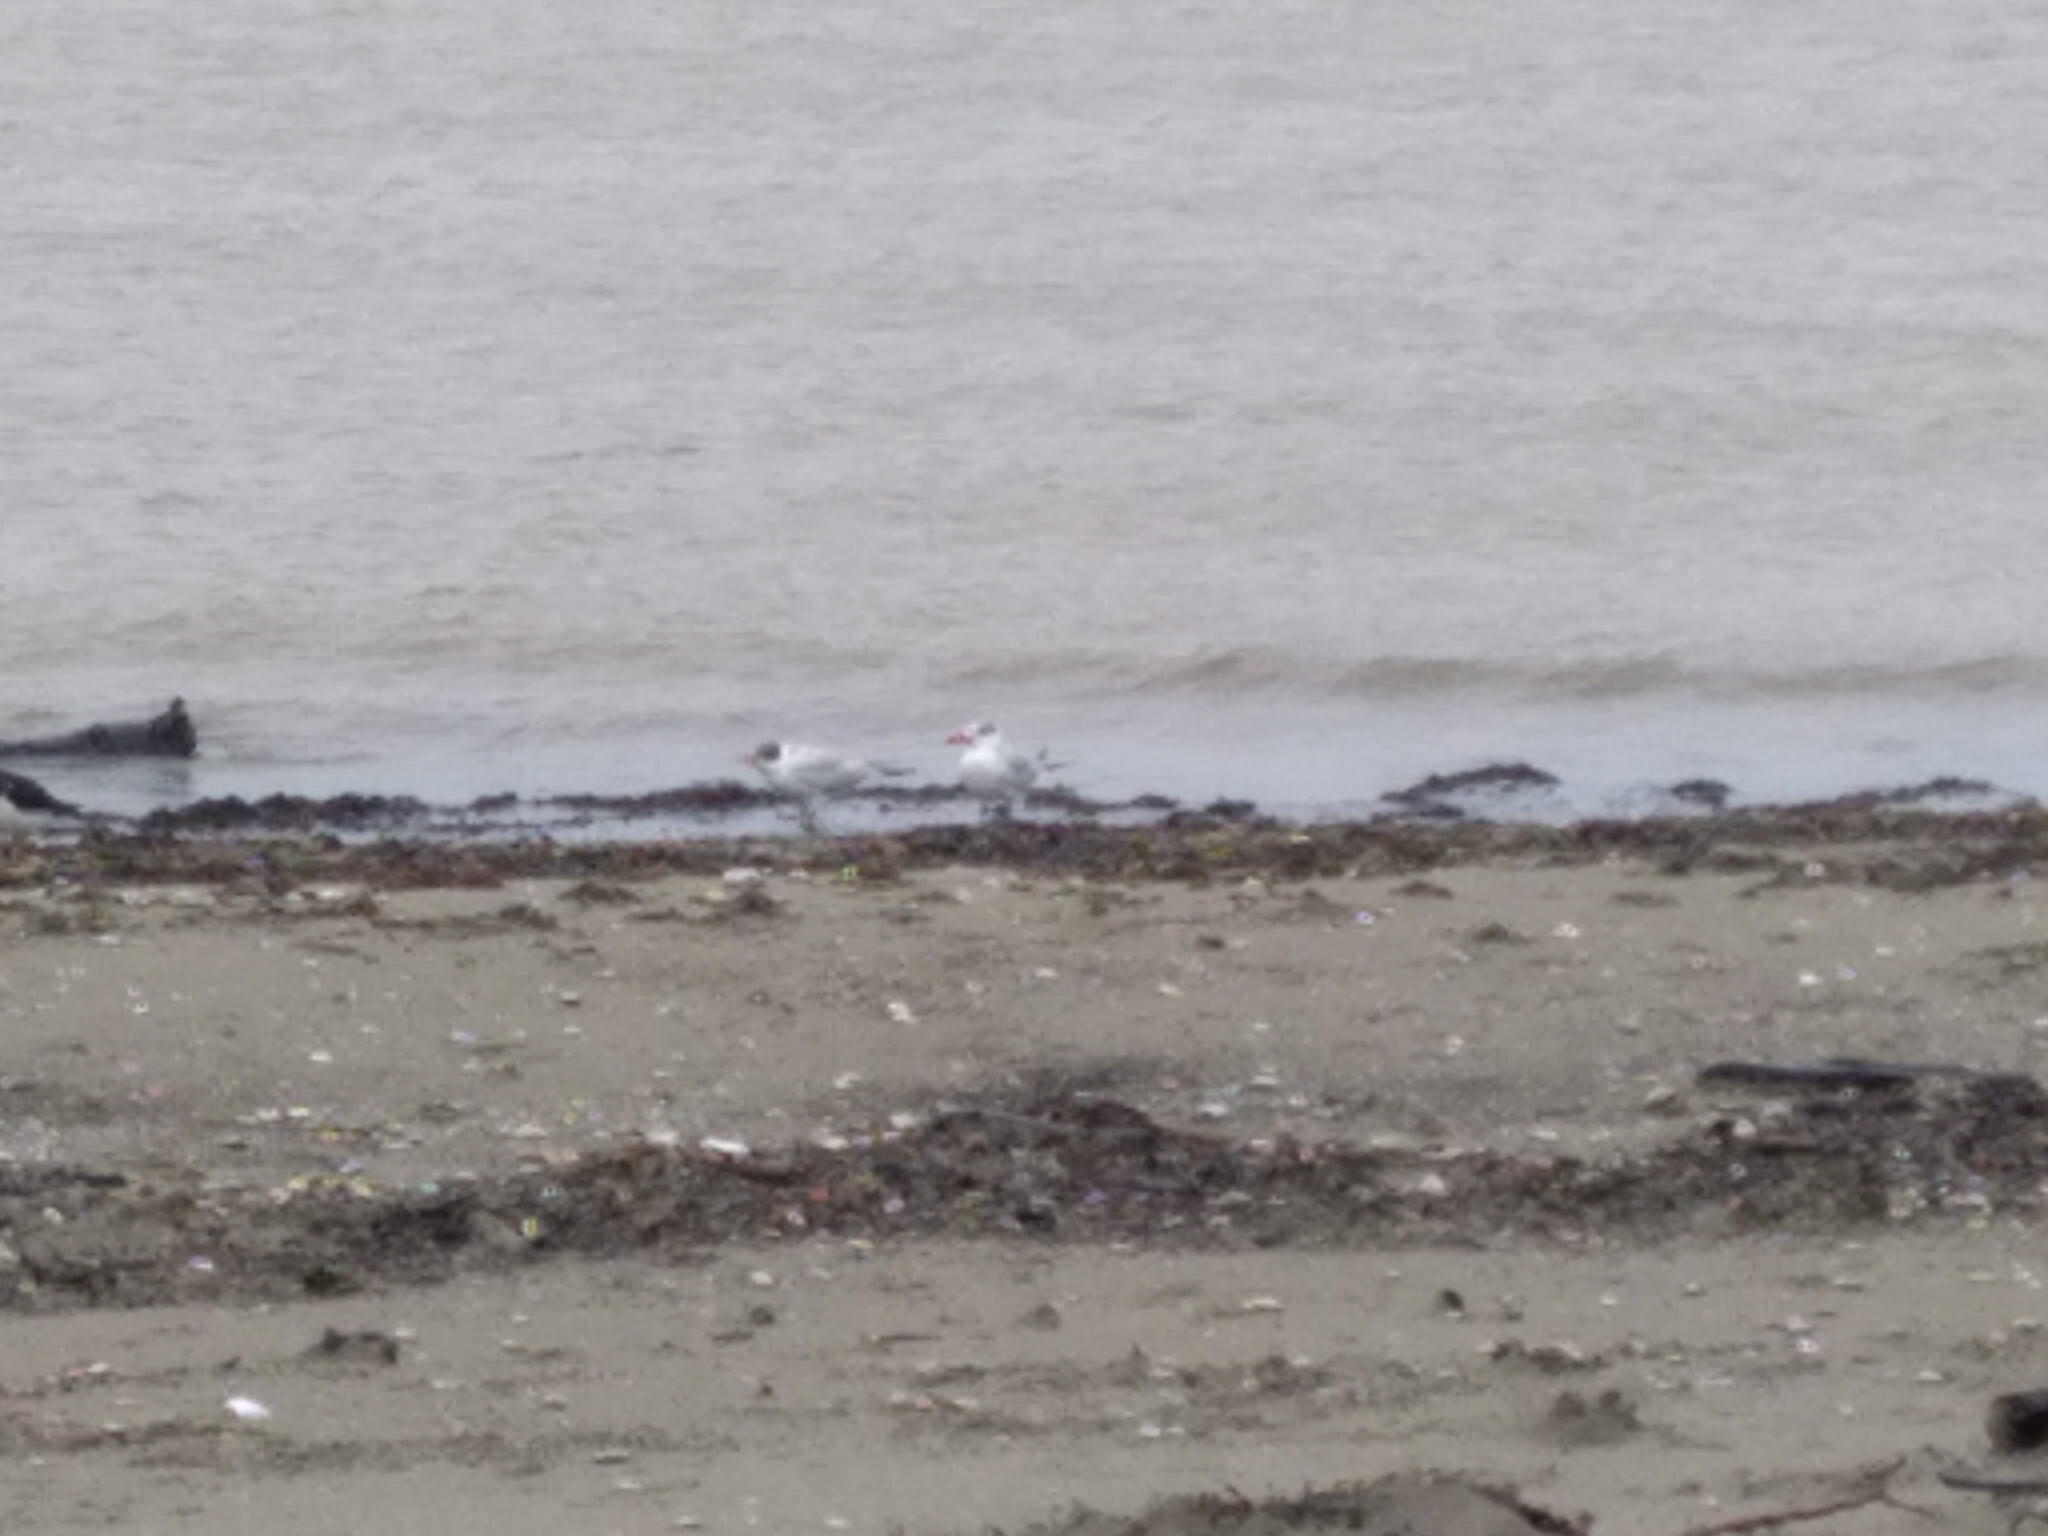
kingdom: Animalia
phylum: Chordata
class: Aves
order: Charadriiformes
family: Laridae
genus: Hydroprogne
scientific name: Hydroprogne caspia
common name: Caspian tern
